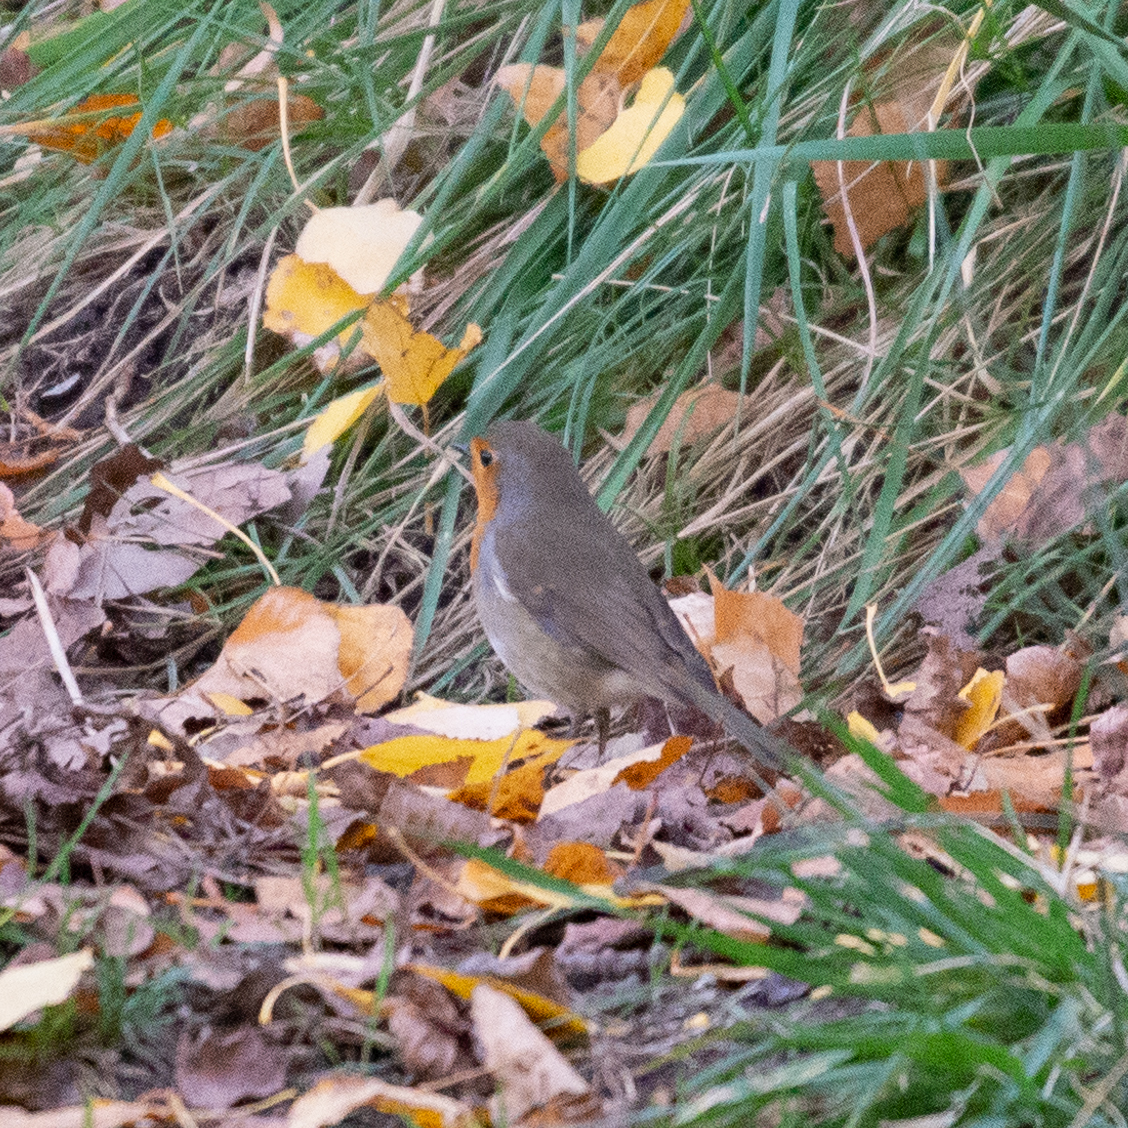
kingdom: Animalia
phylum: Chordata
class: Aves
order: Passeriformes
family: Muscicapidae
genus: Erithacus
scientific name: Erithacus rubecula
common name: European robin
